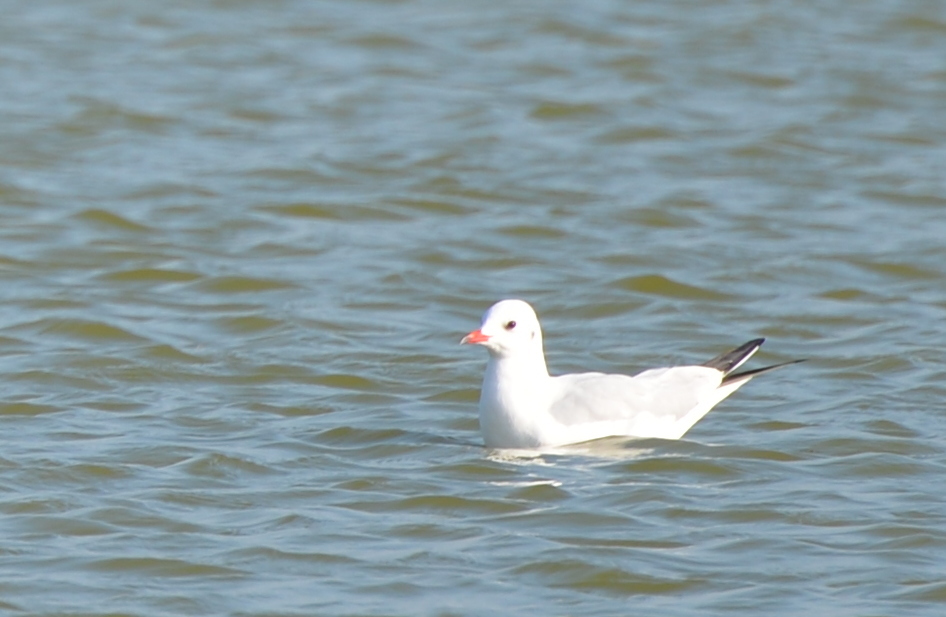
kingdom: Animalia
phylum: Chordata
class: Aves
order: Charadriiformes
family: Laridae
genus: Chroicocephalus
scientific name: Chroicocephalus ridibundus
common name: Black-headed gull
